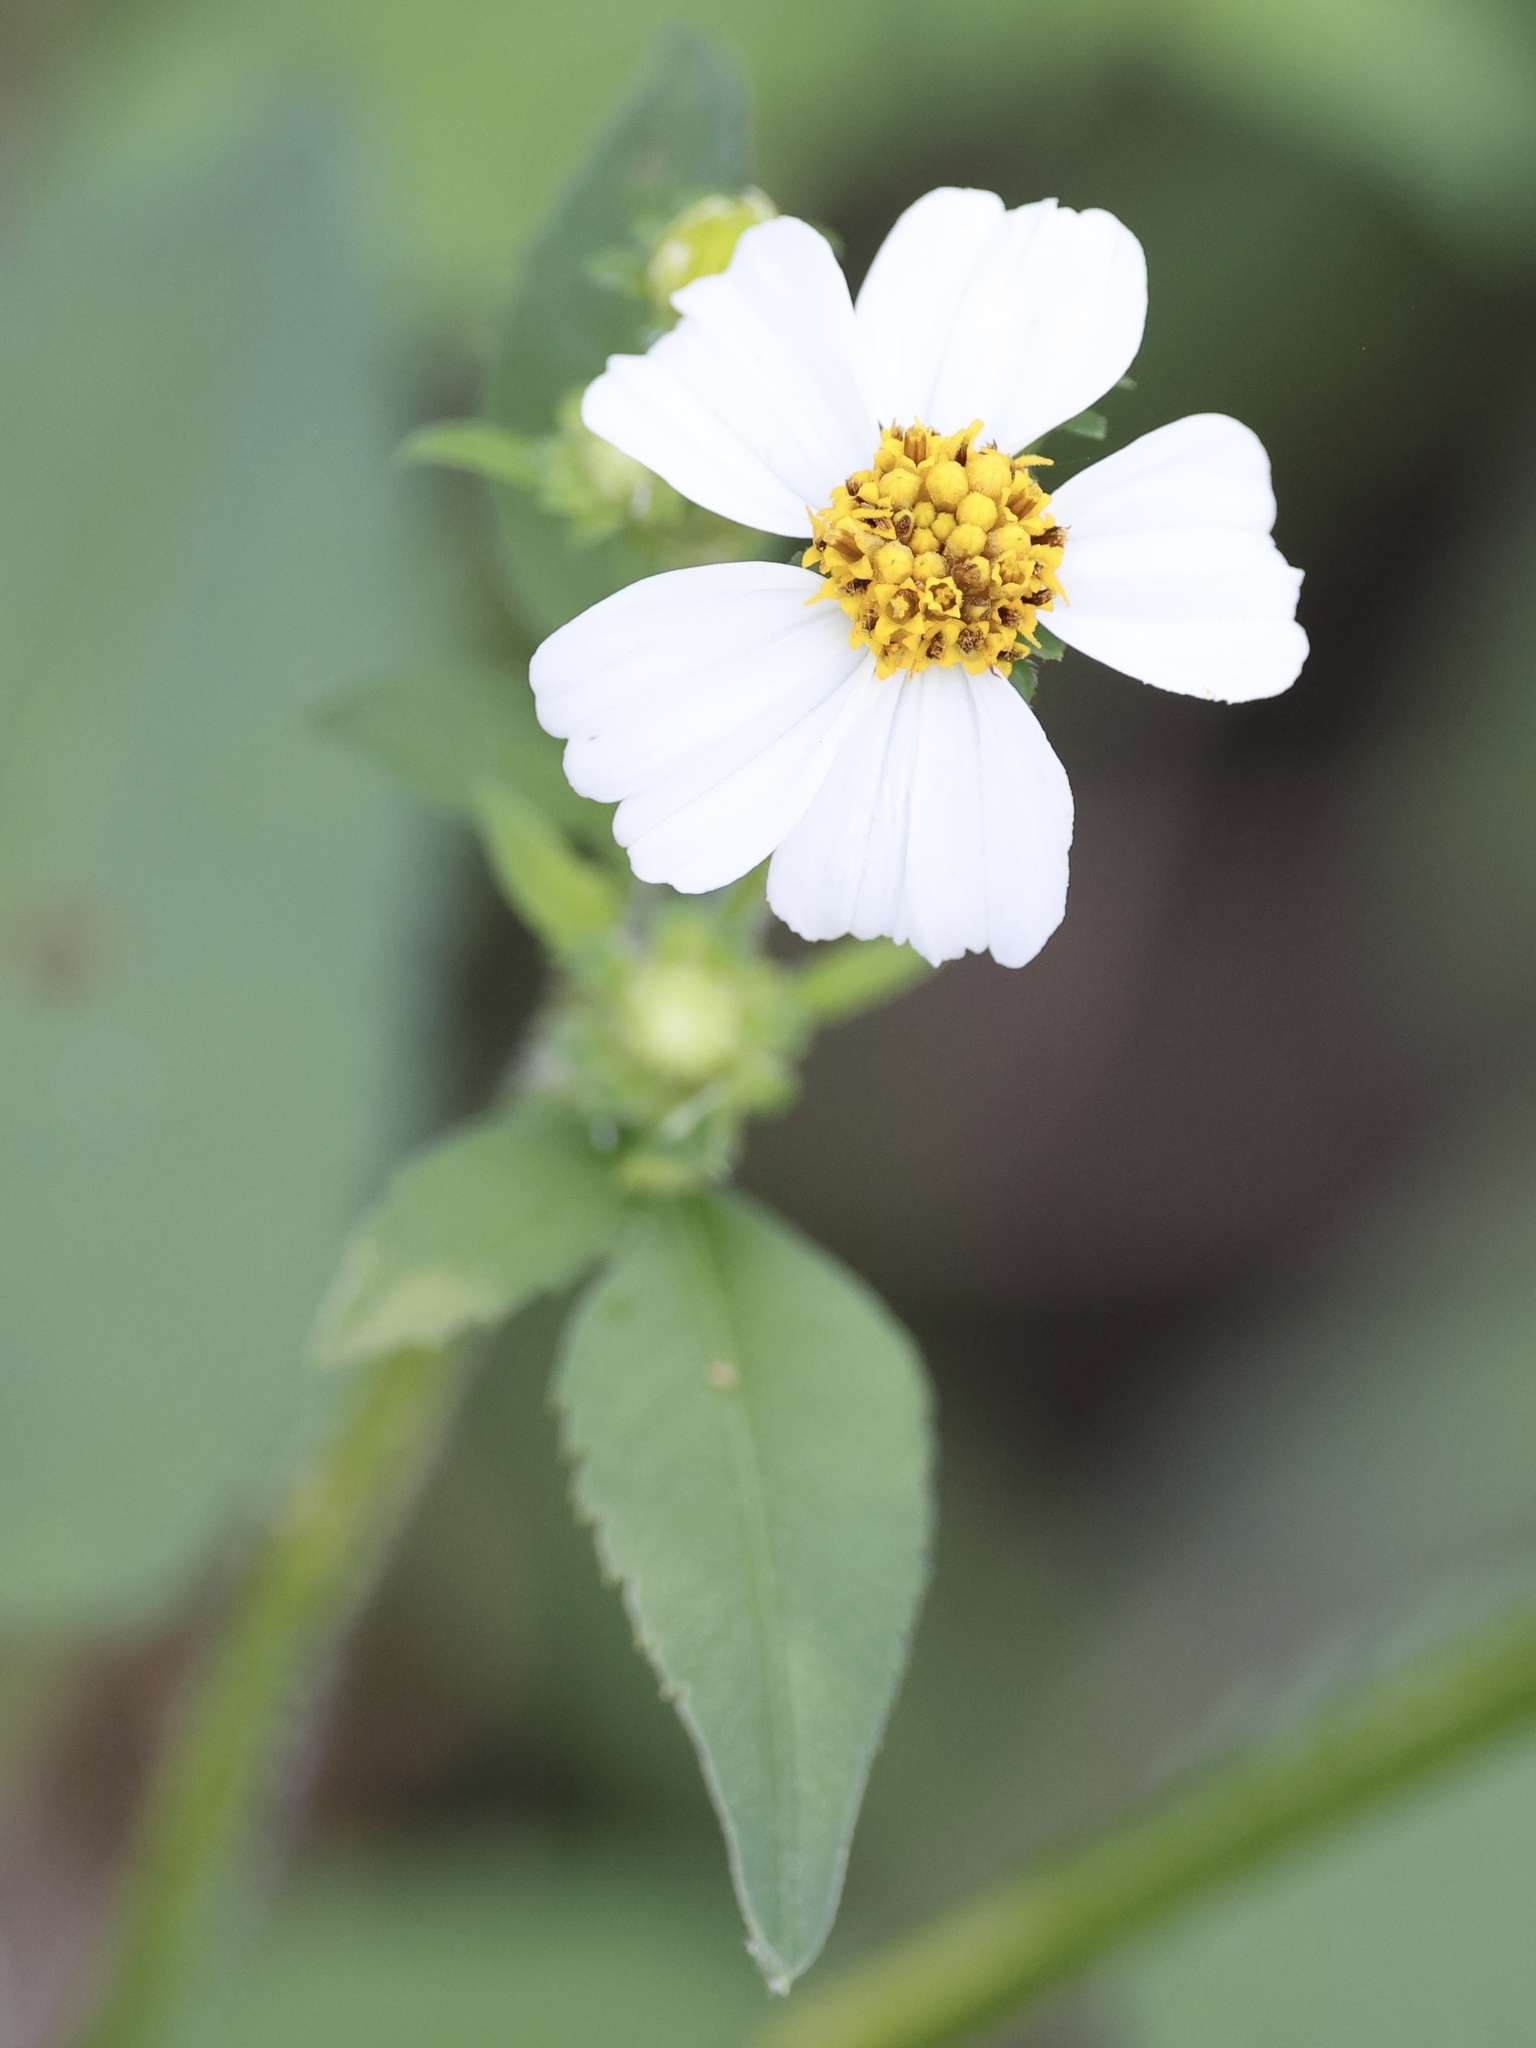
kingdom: Plantae
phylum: Tracheophyta
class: Magnoliopsida
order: Asterales
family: Asteraceae
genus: Bidens
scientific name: Bidens alba
